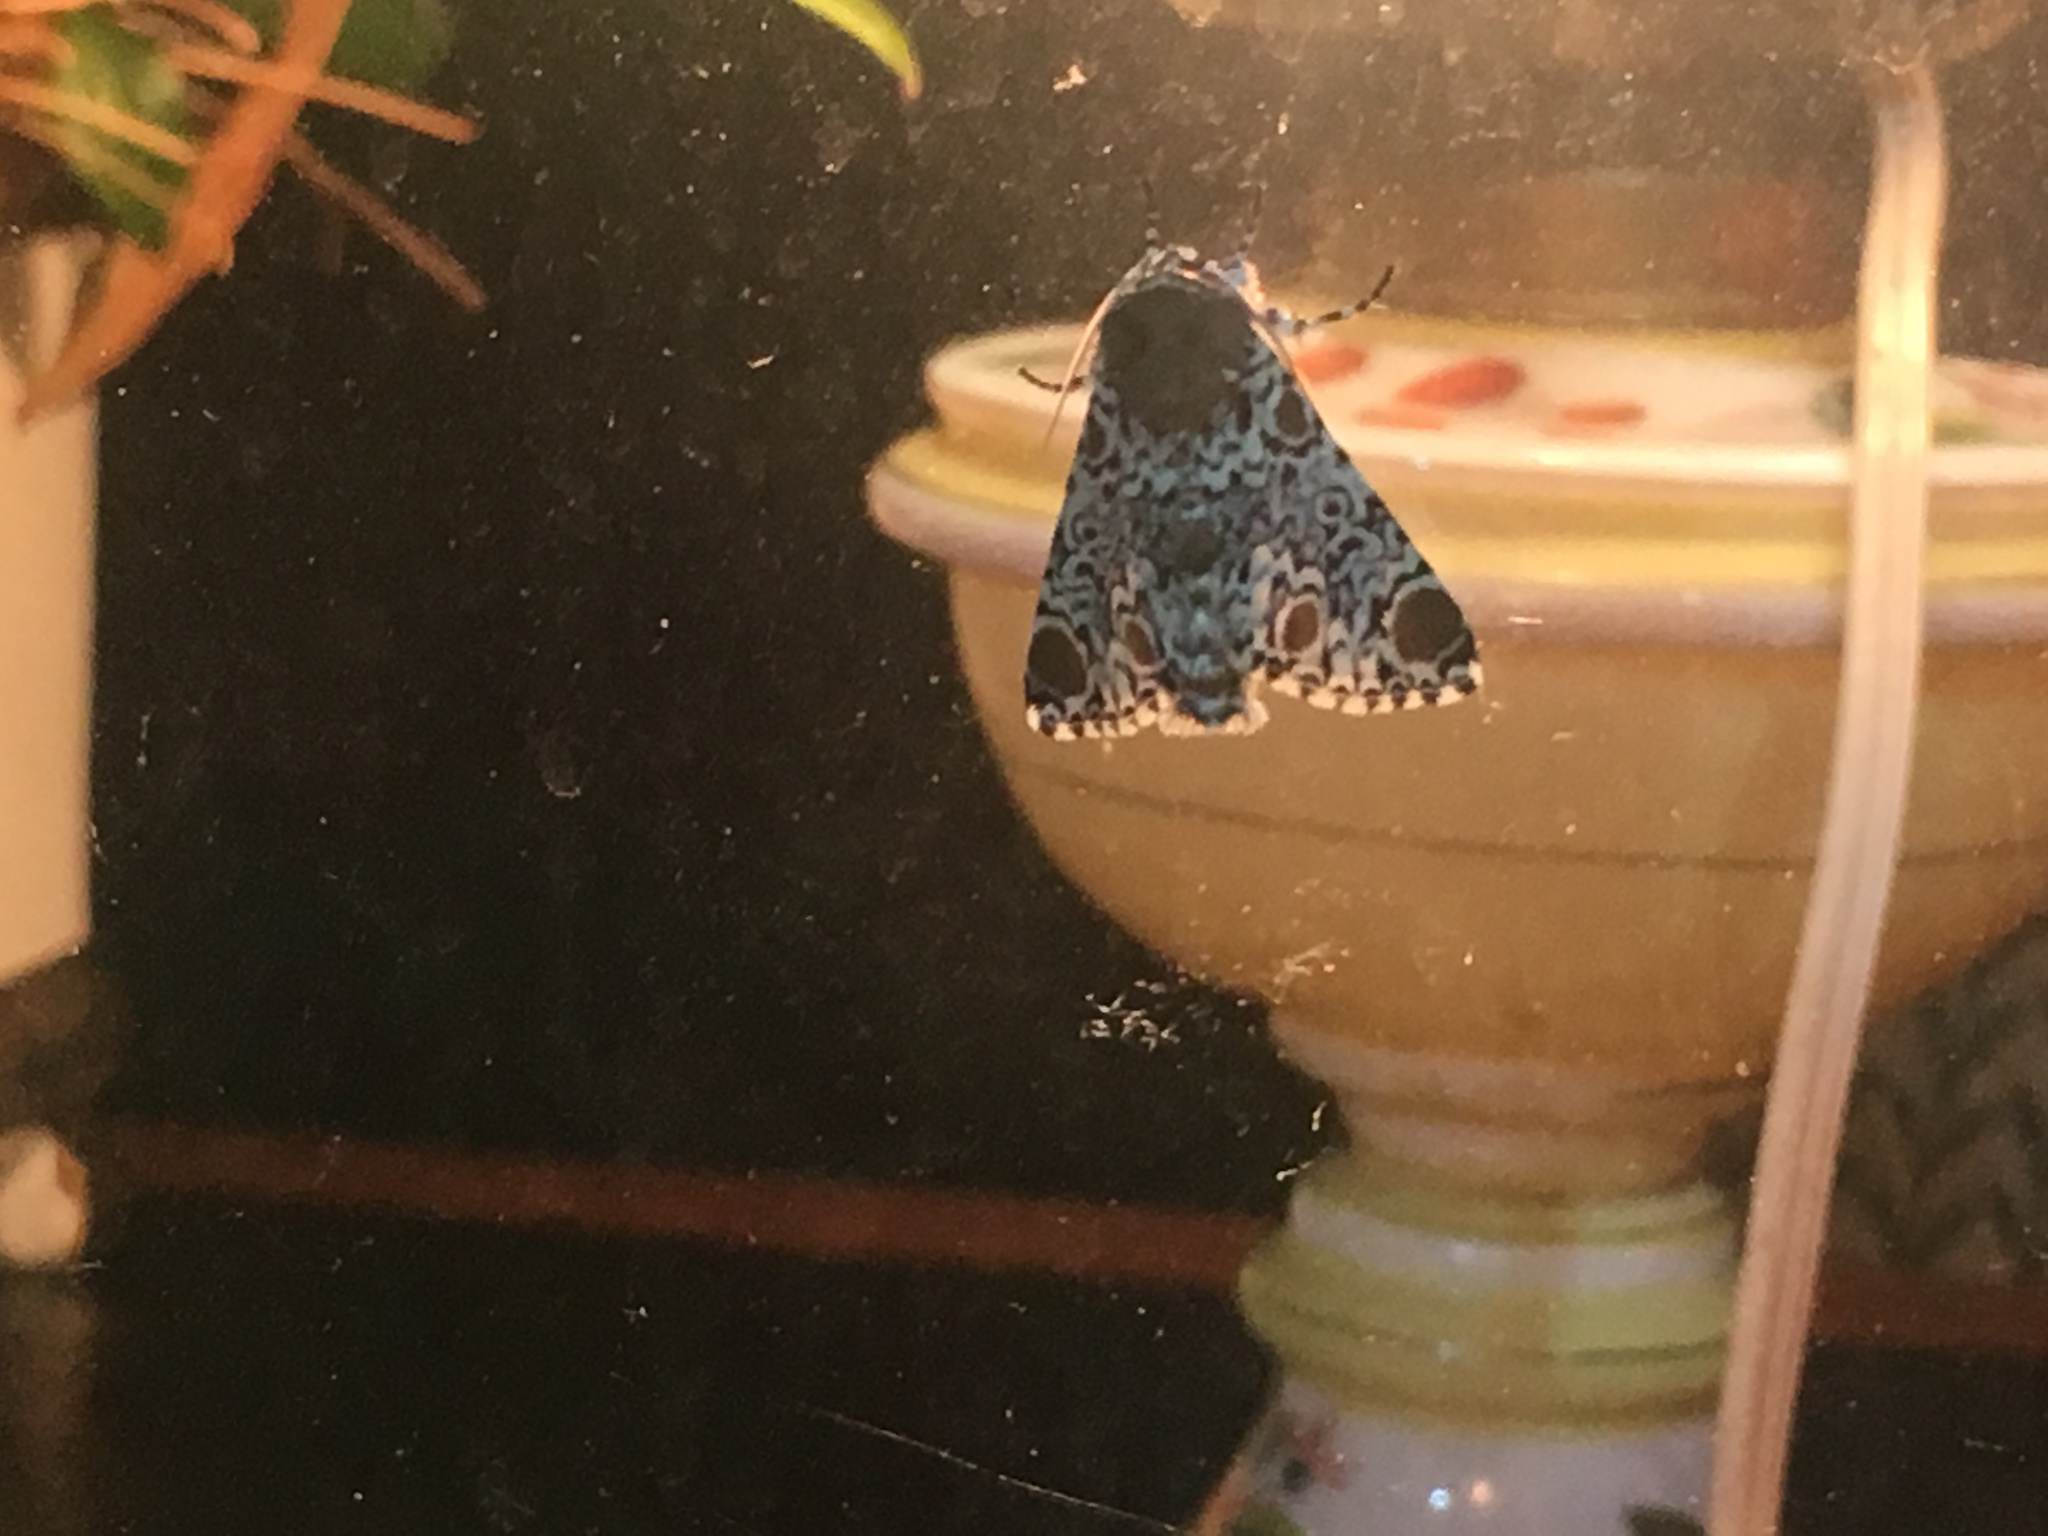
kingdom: Animalia
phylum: Arthropoda
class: Insecta
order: Lepidoptera
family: Noctuidae
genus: Harrisimemna
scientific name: Harrisimemna trisignata
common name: Harris threespot
